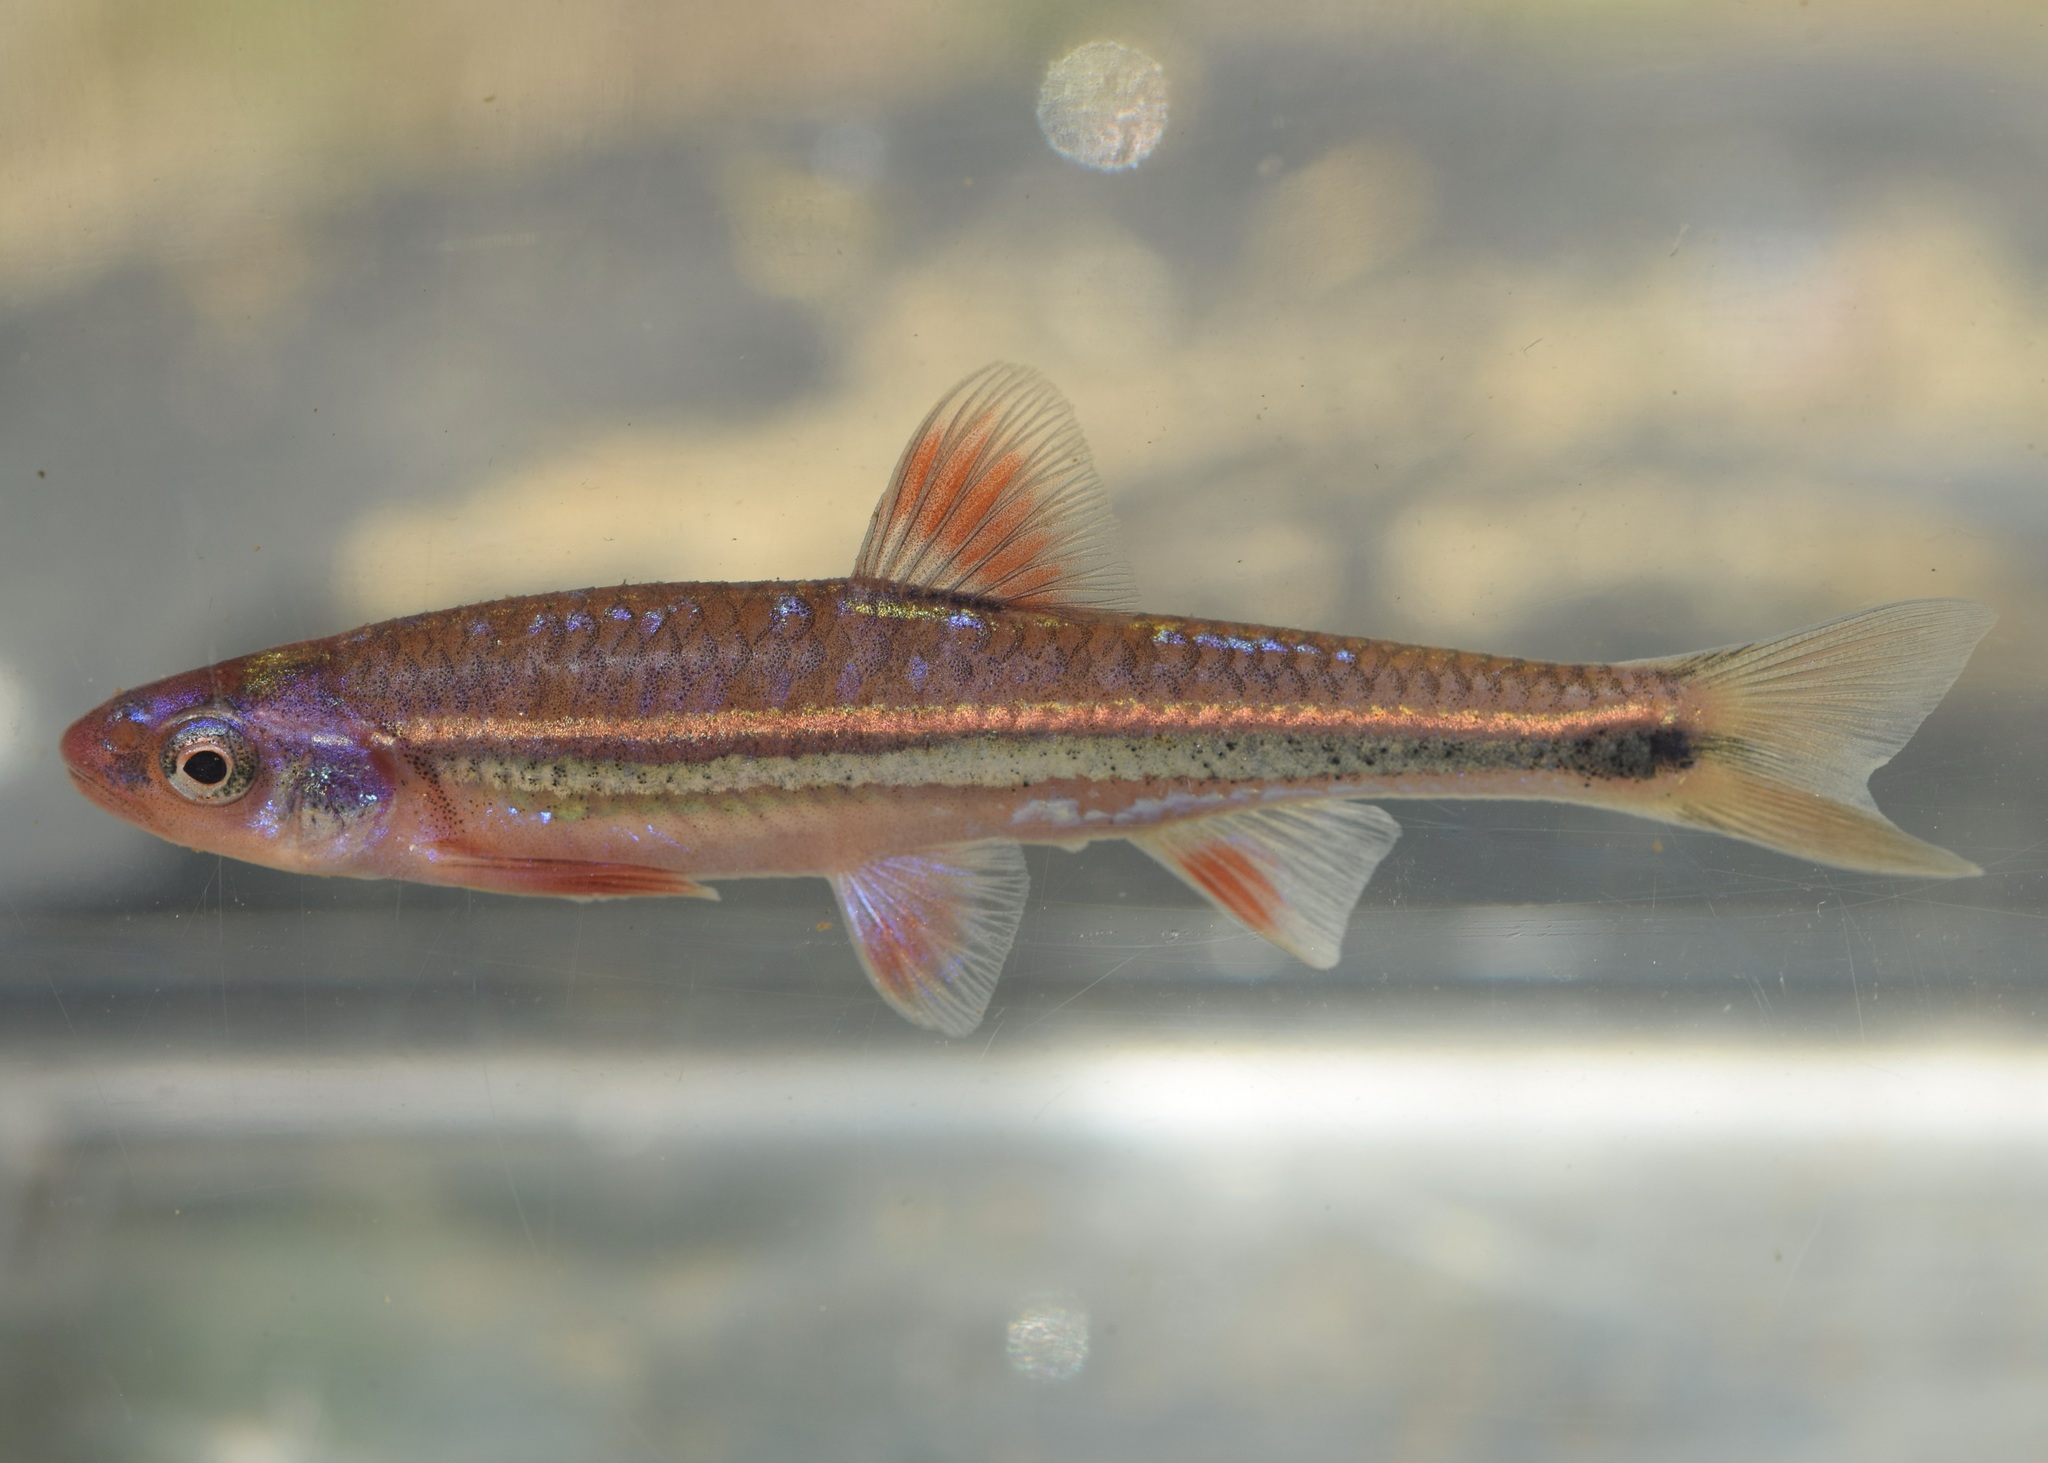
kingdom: Animalia
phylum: Chordata
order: Cypriniformes
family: Cyprinidae
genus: Notropis
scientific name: Notropis
